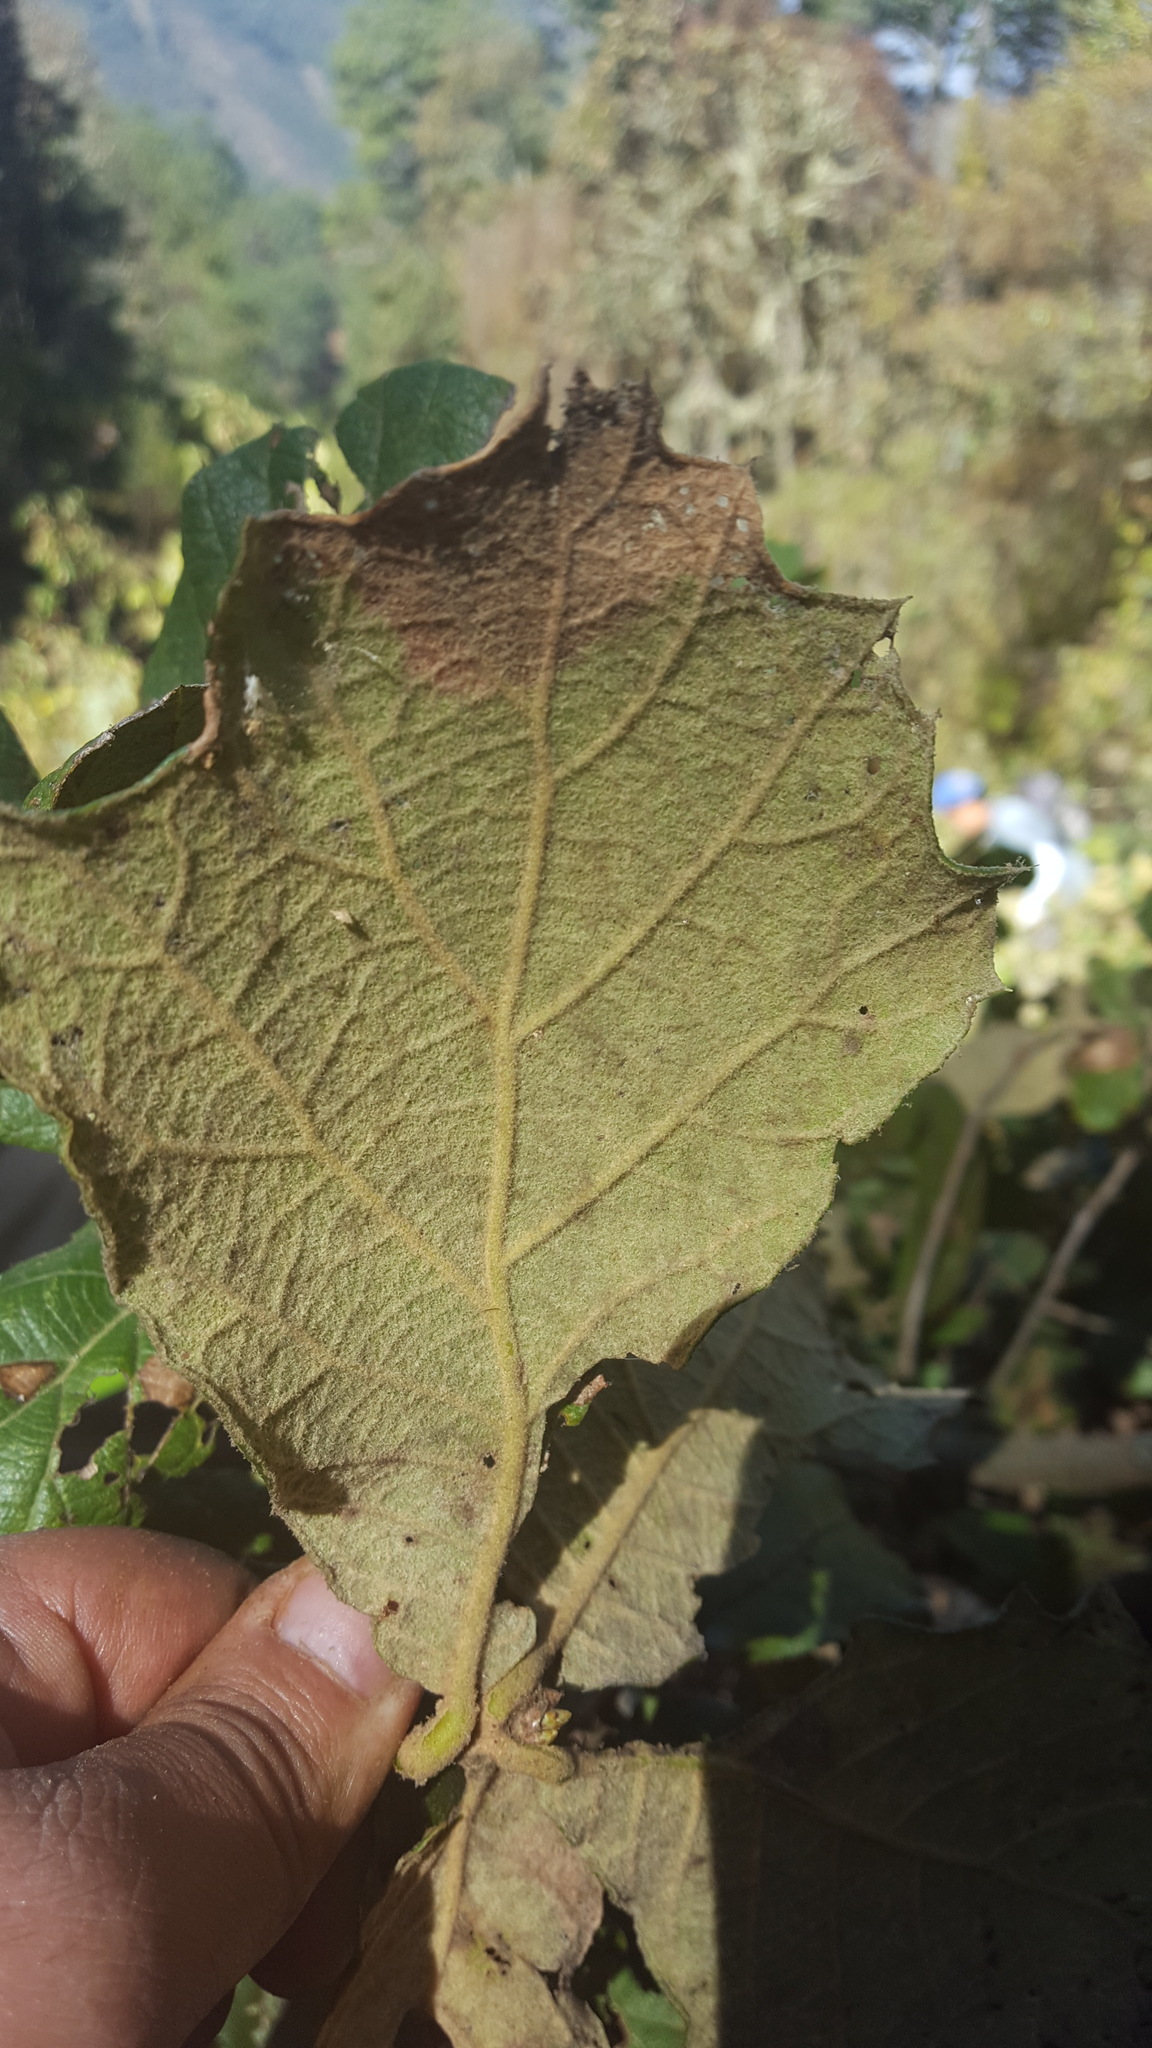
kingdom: Plantae
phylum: Tracheophyta
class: Magnoliopsida
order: Fagales
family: Fagaceae
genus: Quercus
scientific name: Quercus rugosa
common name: Netleaf oak
